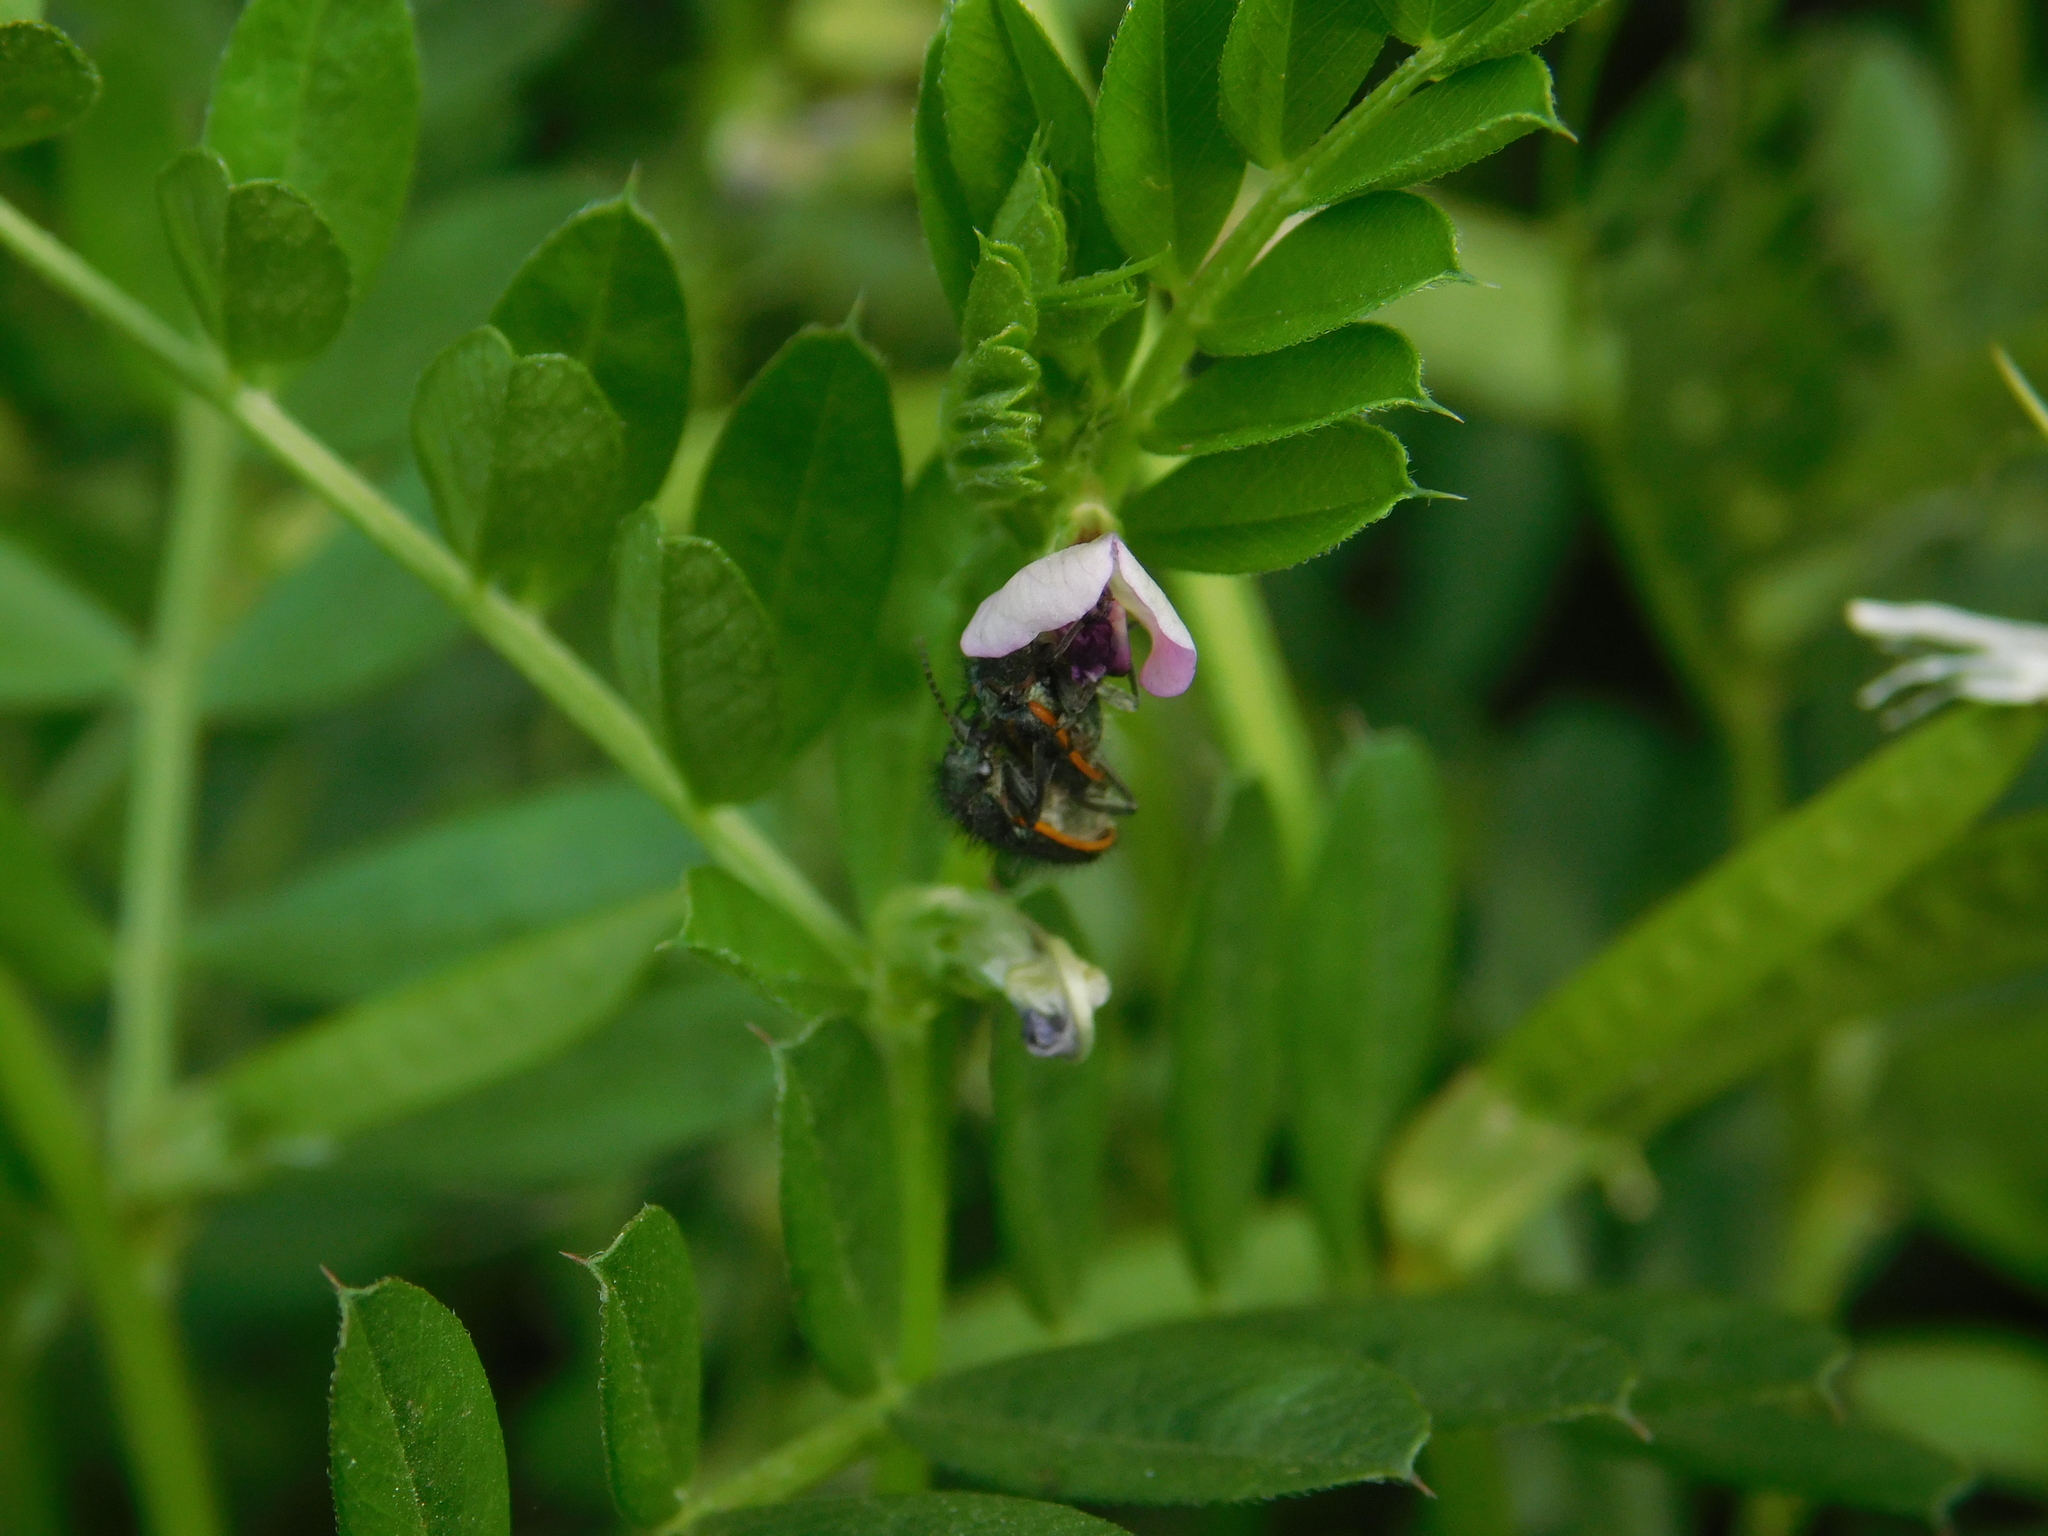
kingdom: Animalia
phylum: Arthropoda
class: Insecta
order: Coleoptera
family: Melyridae
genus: Astylus
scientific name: Astylus
